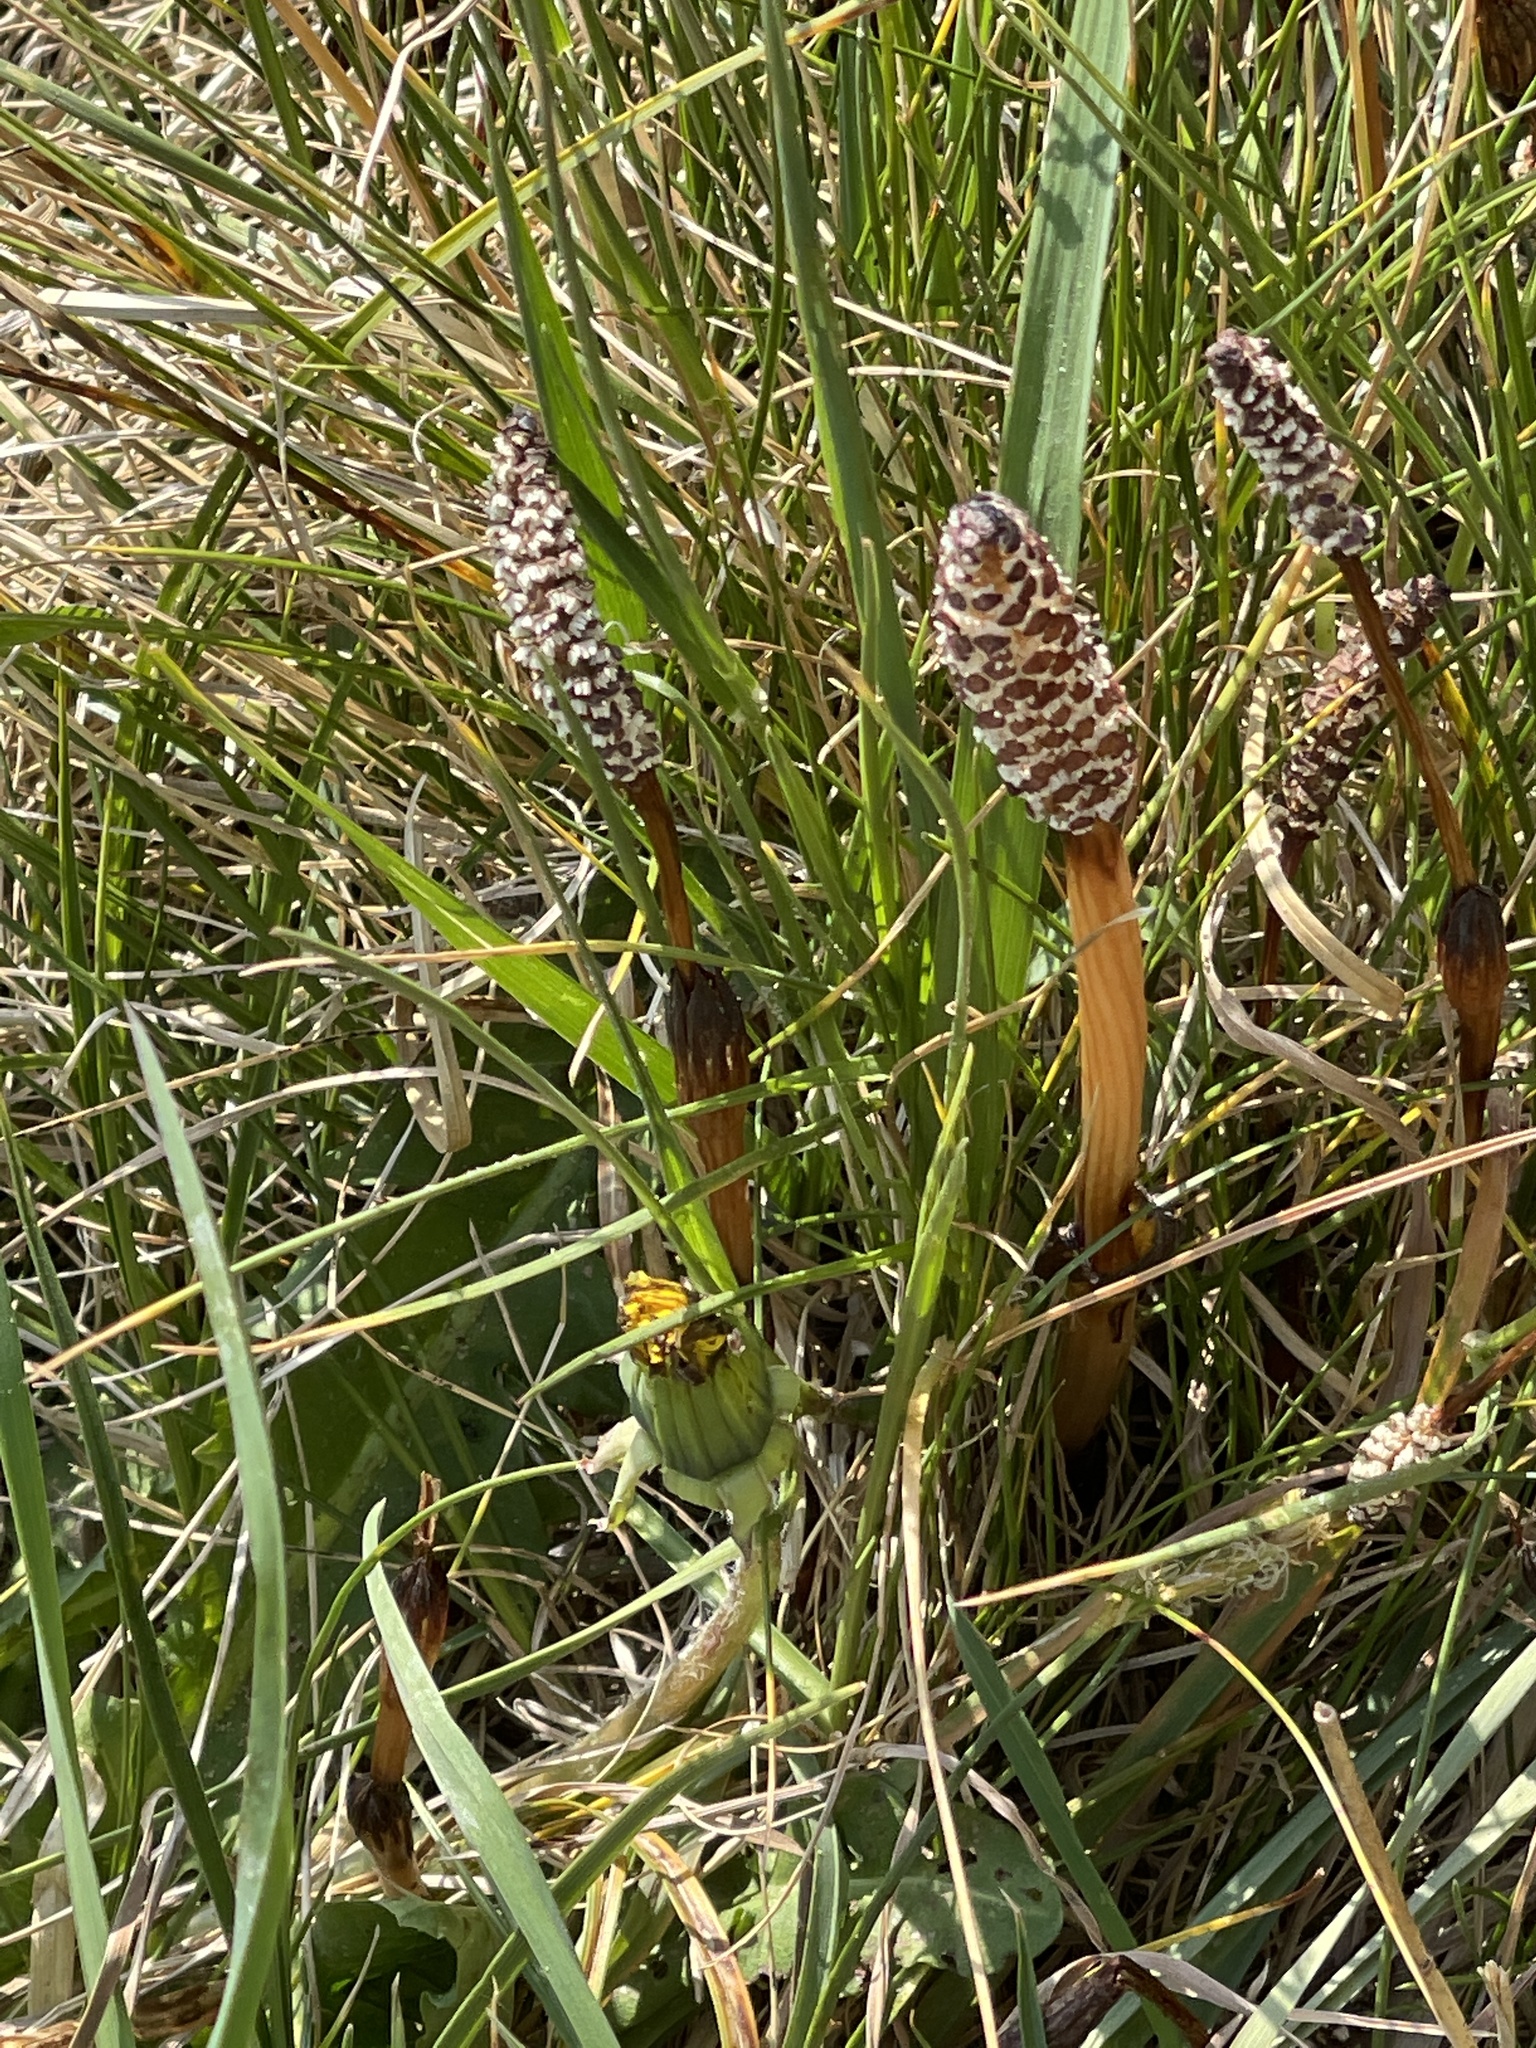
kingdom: Plantae
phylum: Tracheophyta
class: Polypodiopsida
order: Equisetales
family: Equisetaceae
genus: Equisetum
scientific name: Equisetum arvense
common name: Field horsetail
